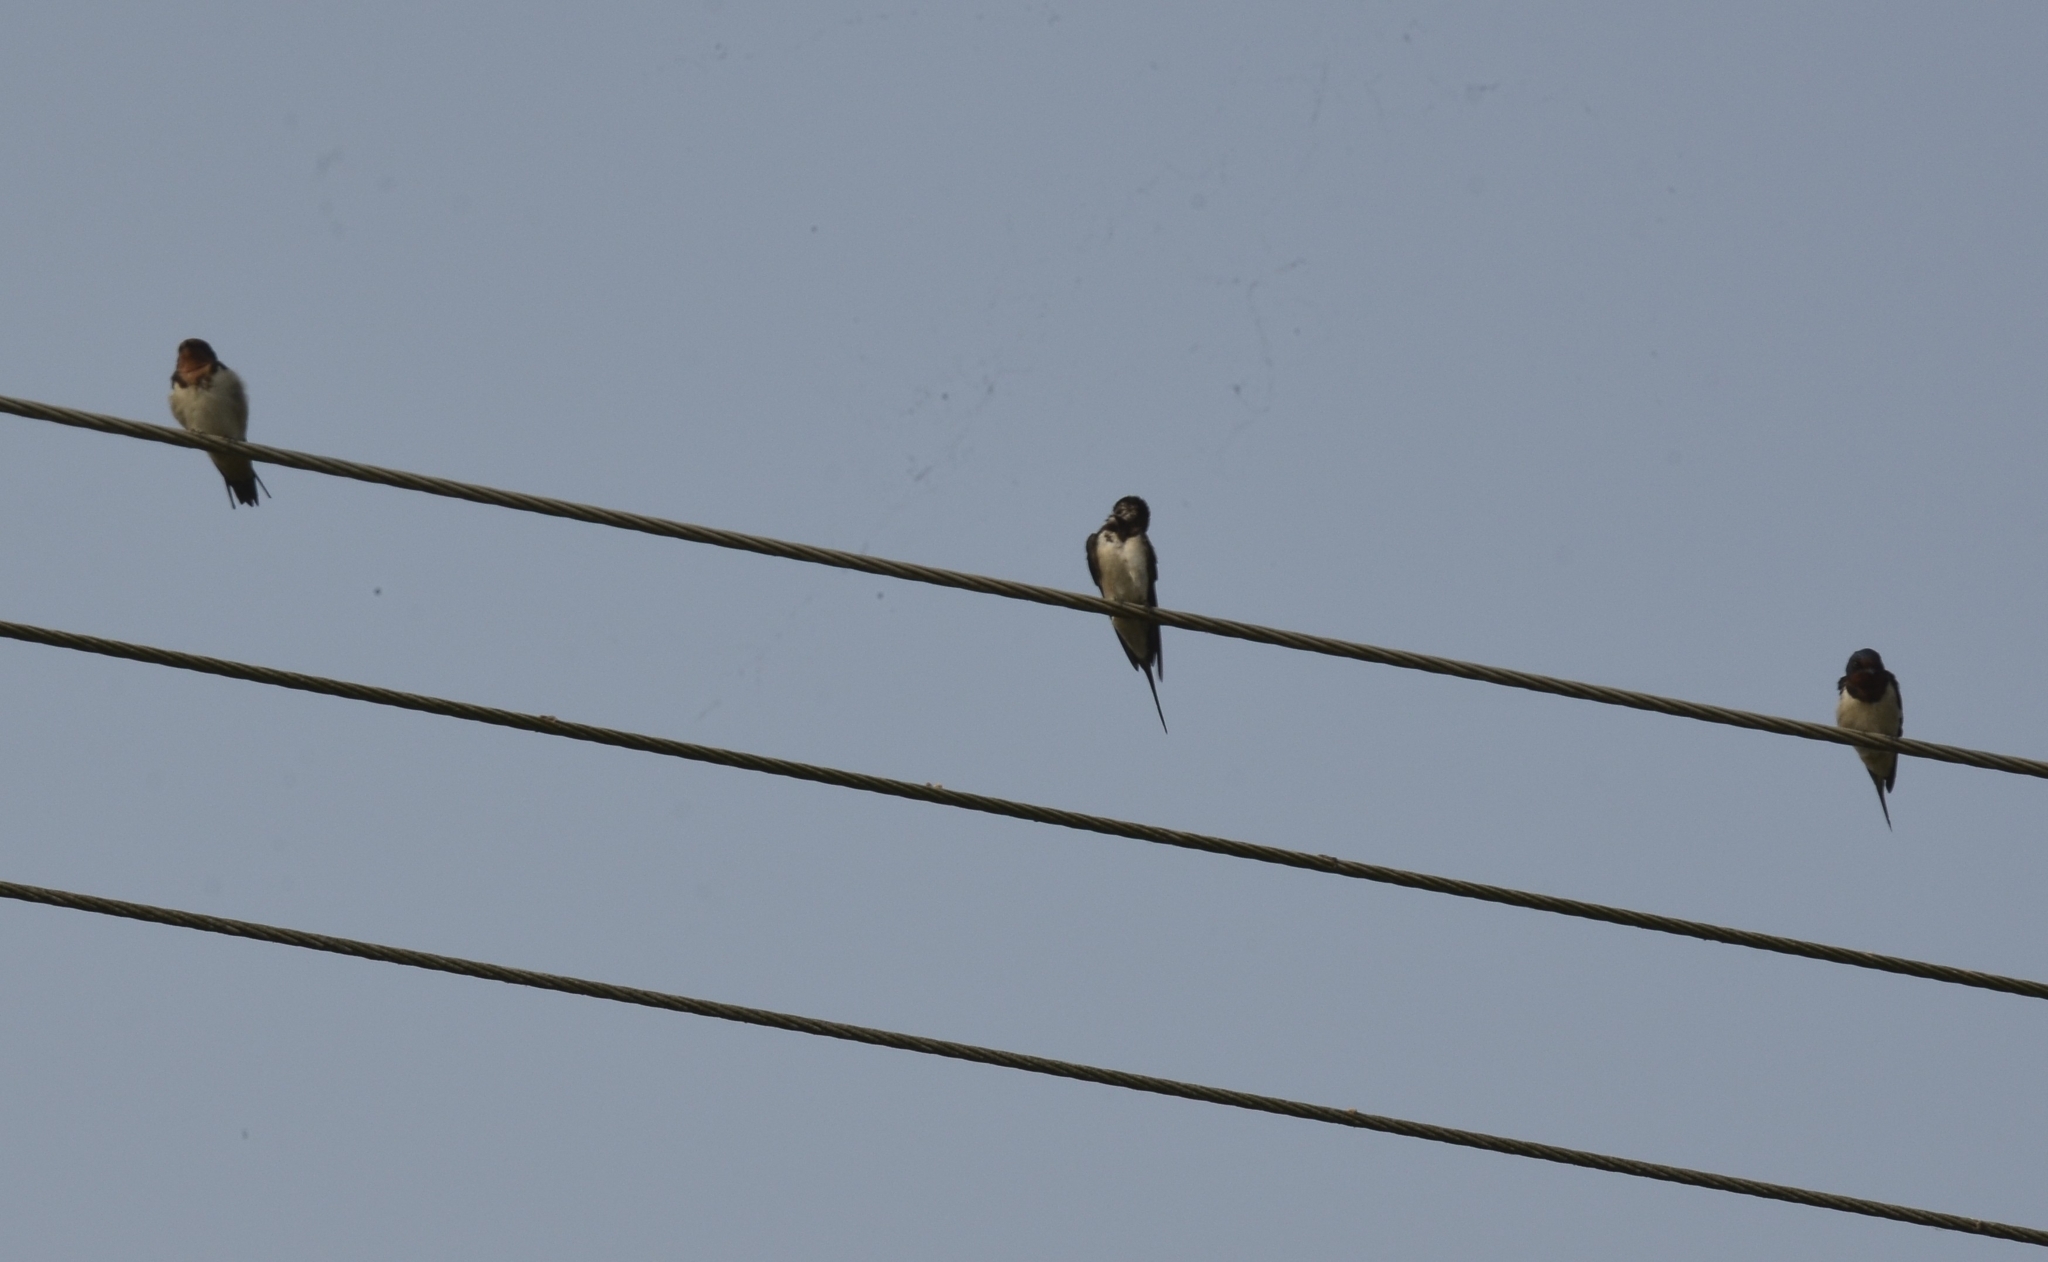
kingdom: Animalia
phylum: Chordata
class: Aves
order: Passeriformes
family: Hirundinidae
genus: Hirundo
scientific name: Hirundo rustica
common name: Barn swallow
